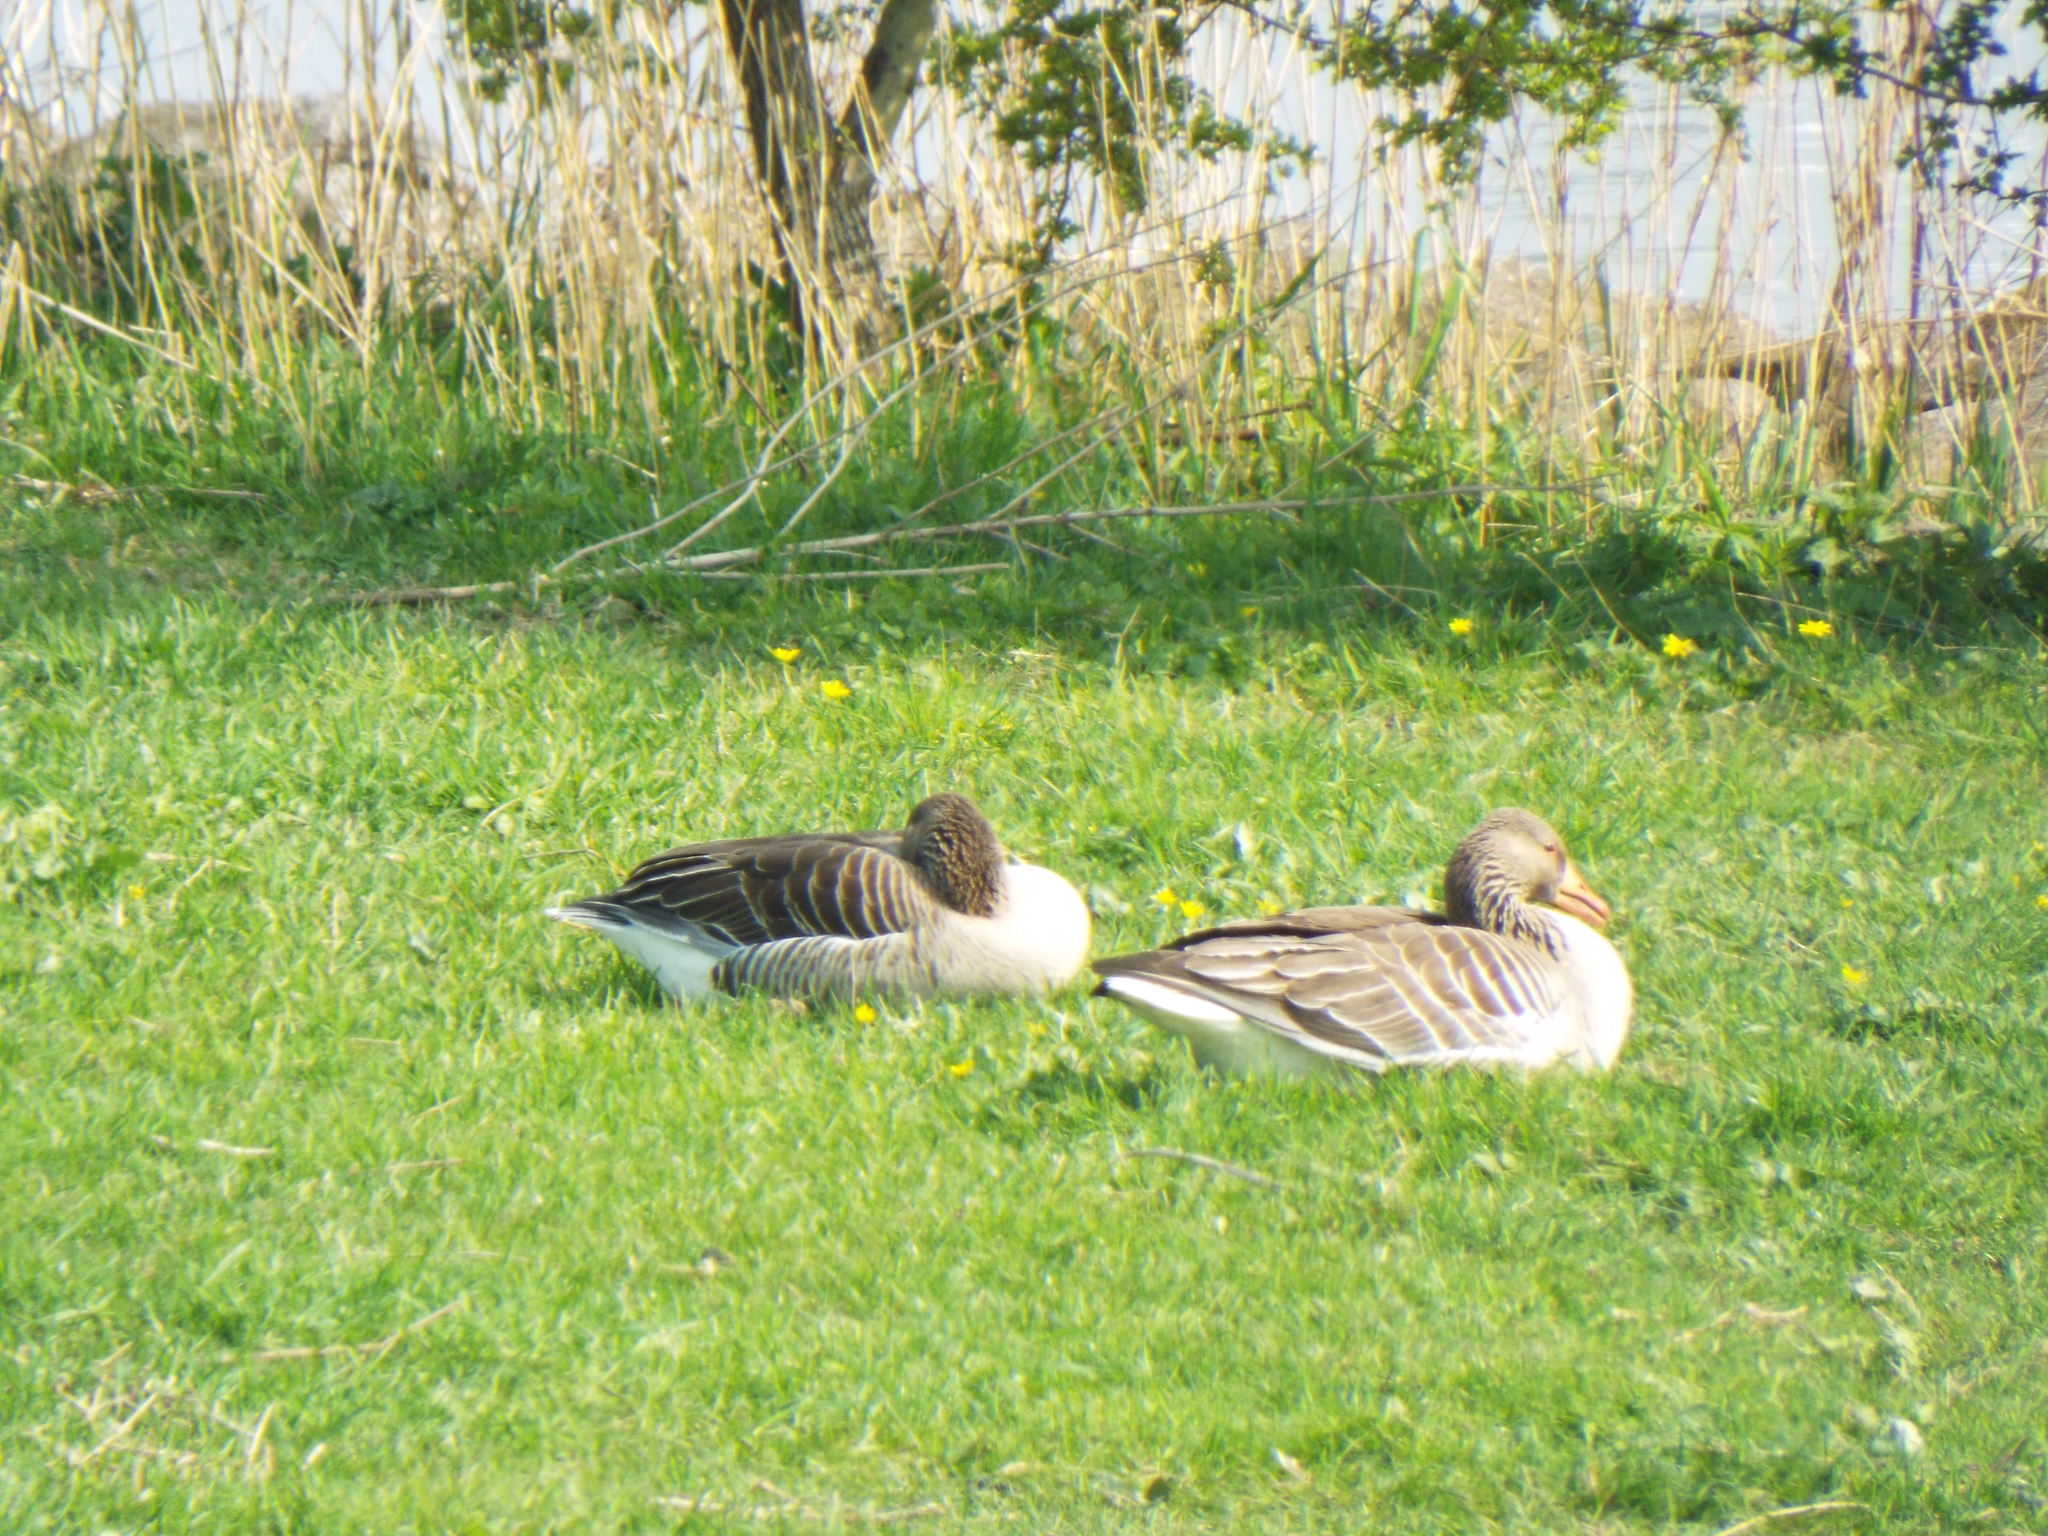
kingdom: Animalia
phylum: Chordata
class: Aves
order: Anseriformes
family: Anatidae
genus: Anser
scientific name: Anser anser
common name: Greylag goose
